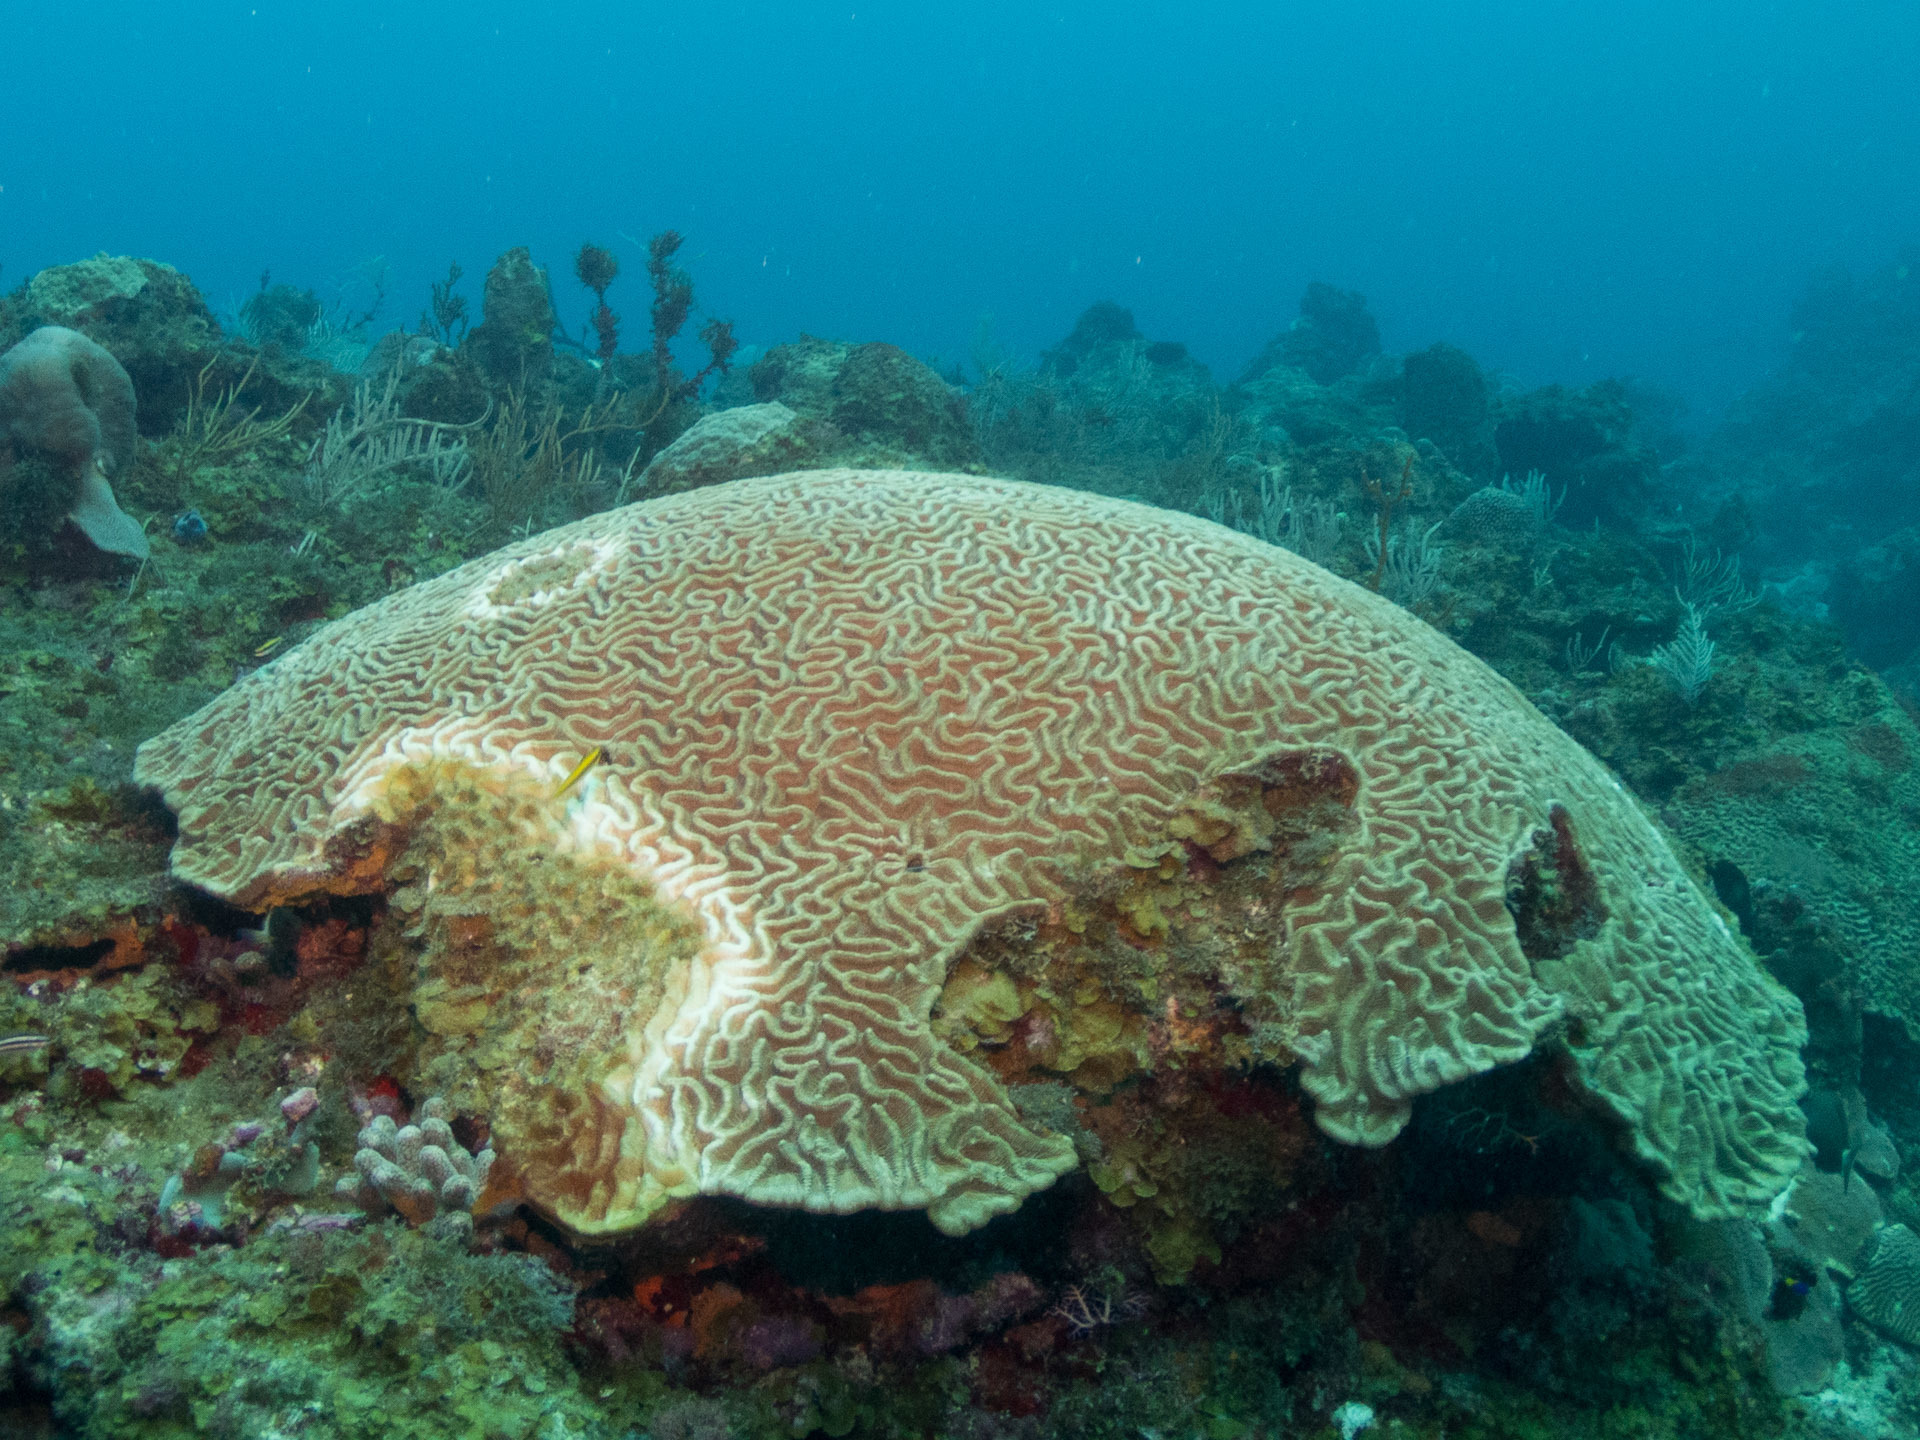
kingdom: Animalia
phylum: Cnidaria
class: Anthozoa
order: Scleractinia
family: Faviidae
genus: Colpophyllia
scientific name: Colpophyllia natans
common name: Boulder brain coral
